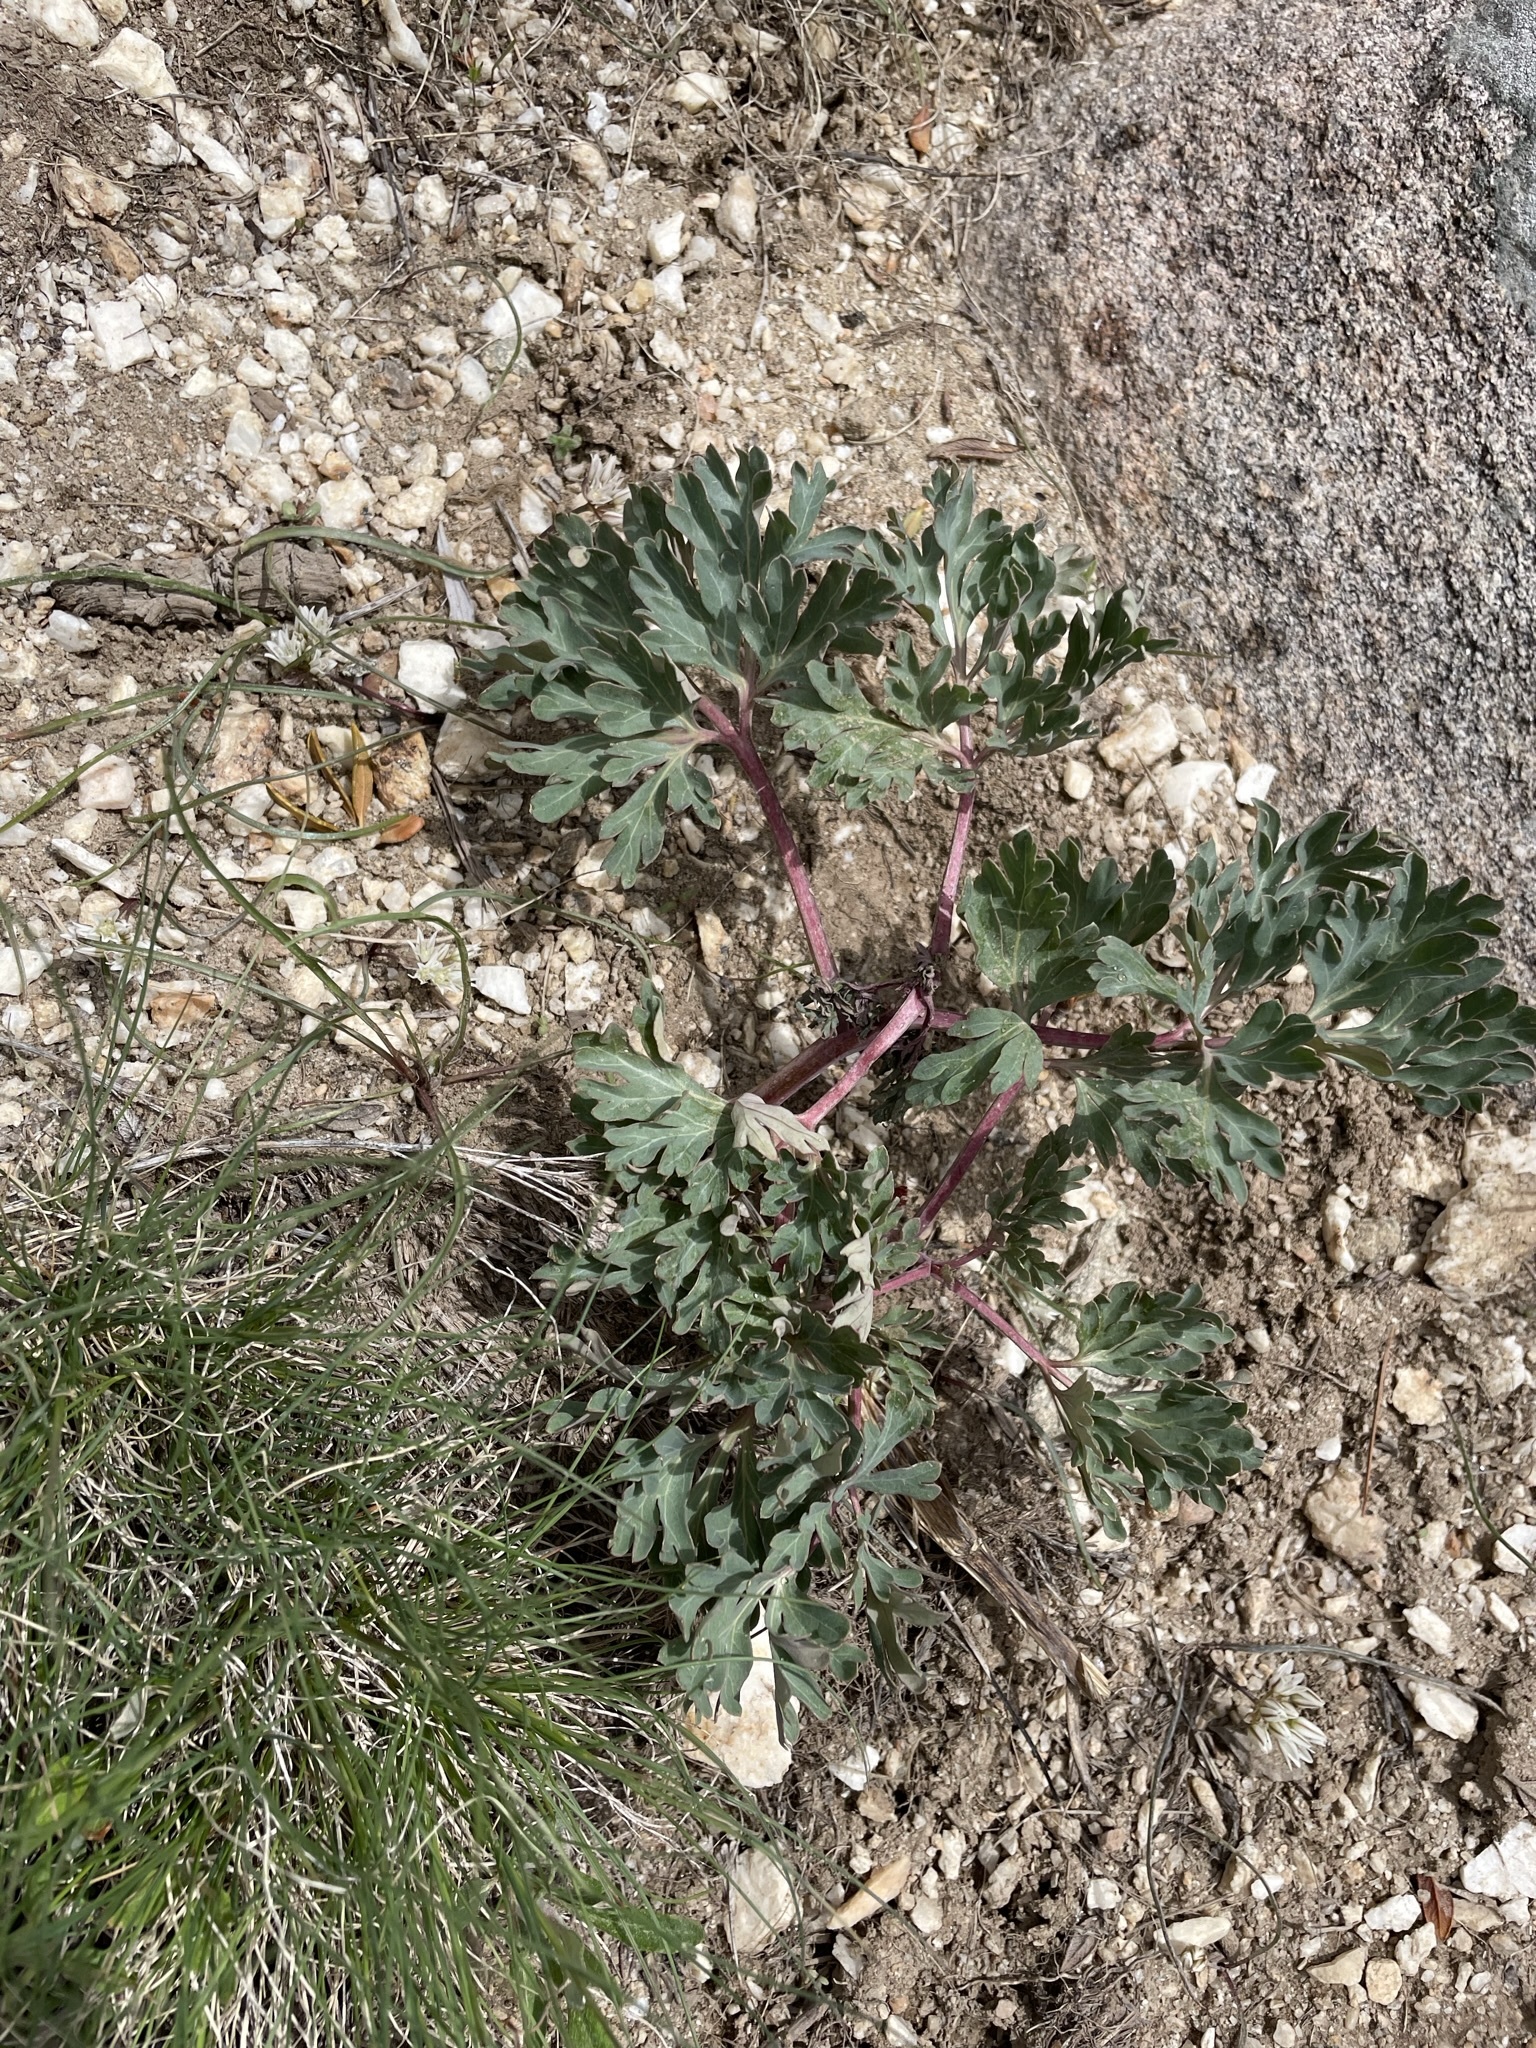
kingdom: Plantae
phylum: Tracheophyta
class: Magnoliopsida
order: Saxifragales
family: Paeoniaceae
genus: Paeonia
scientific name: Paeonia brownii
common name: Brown's peony
